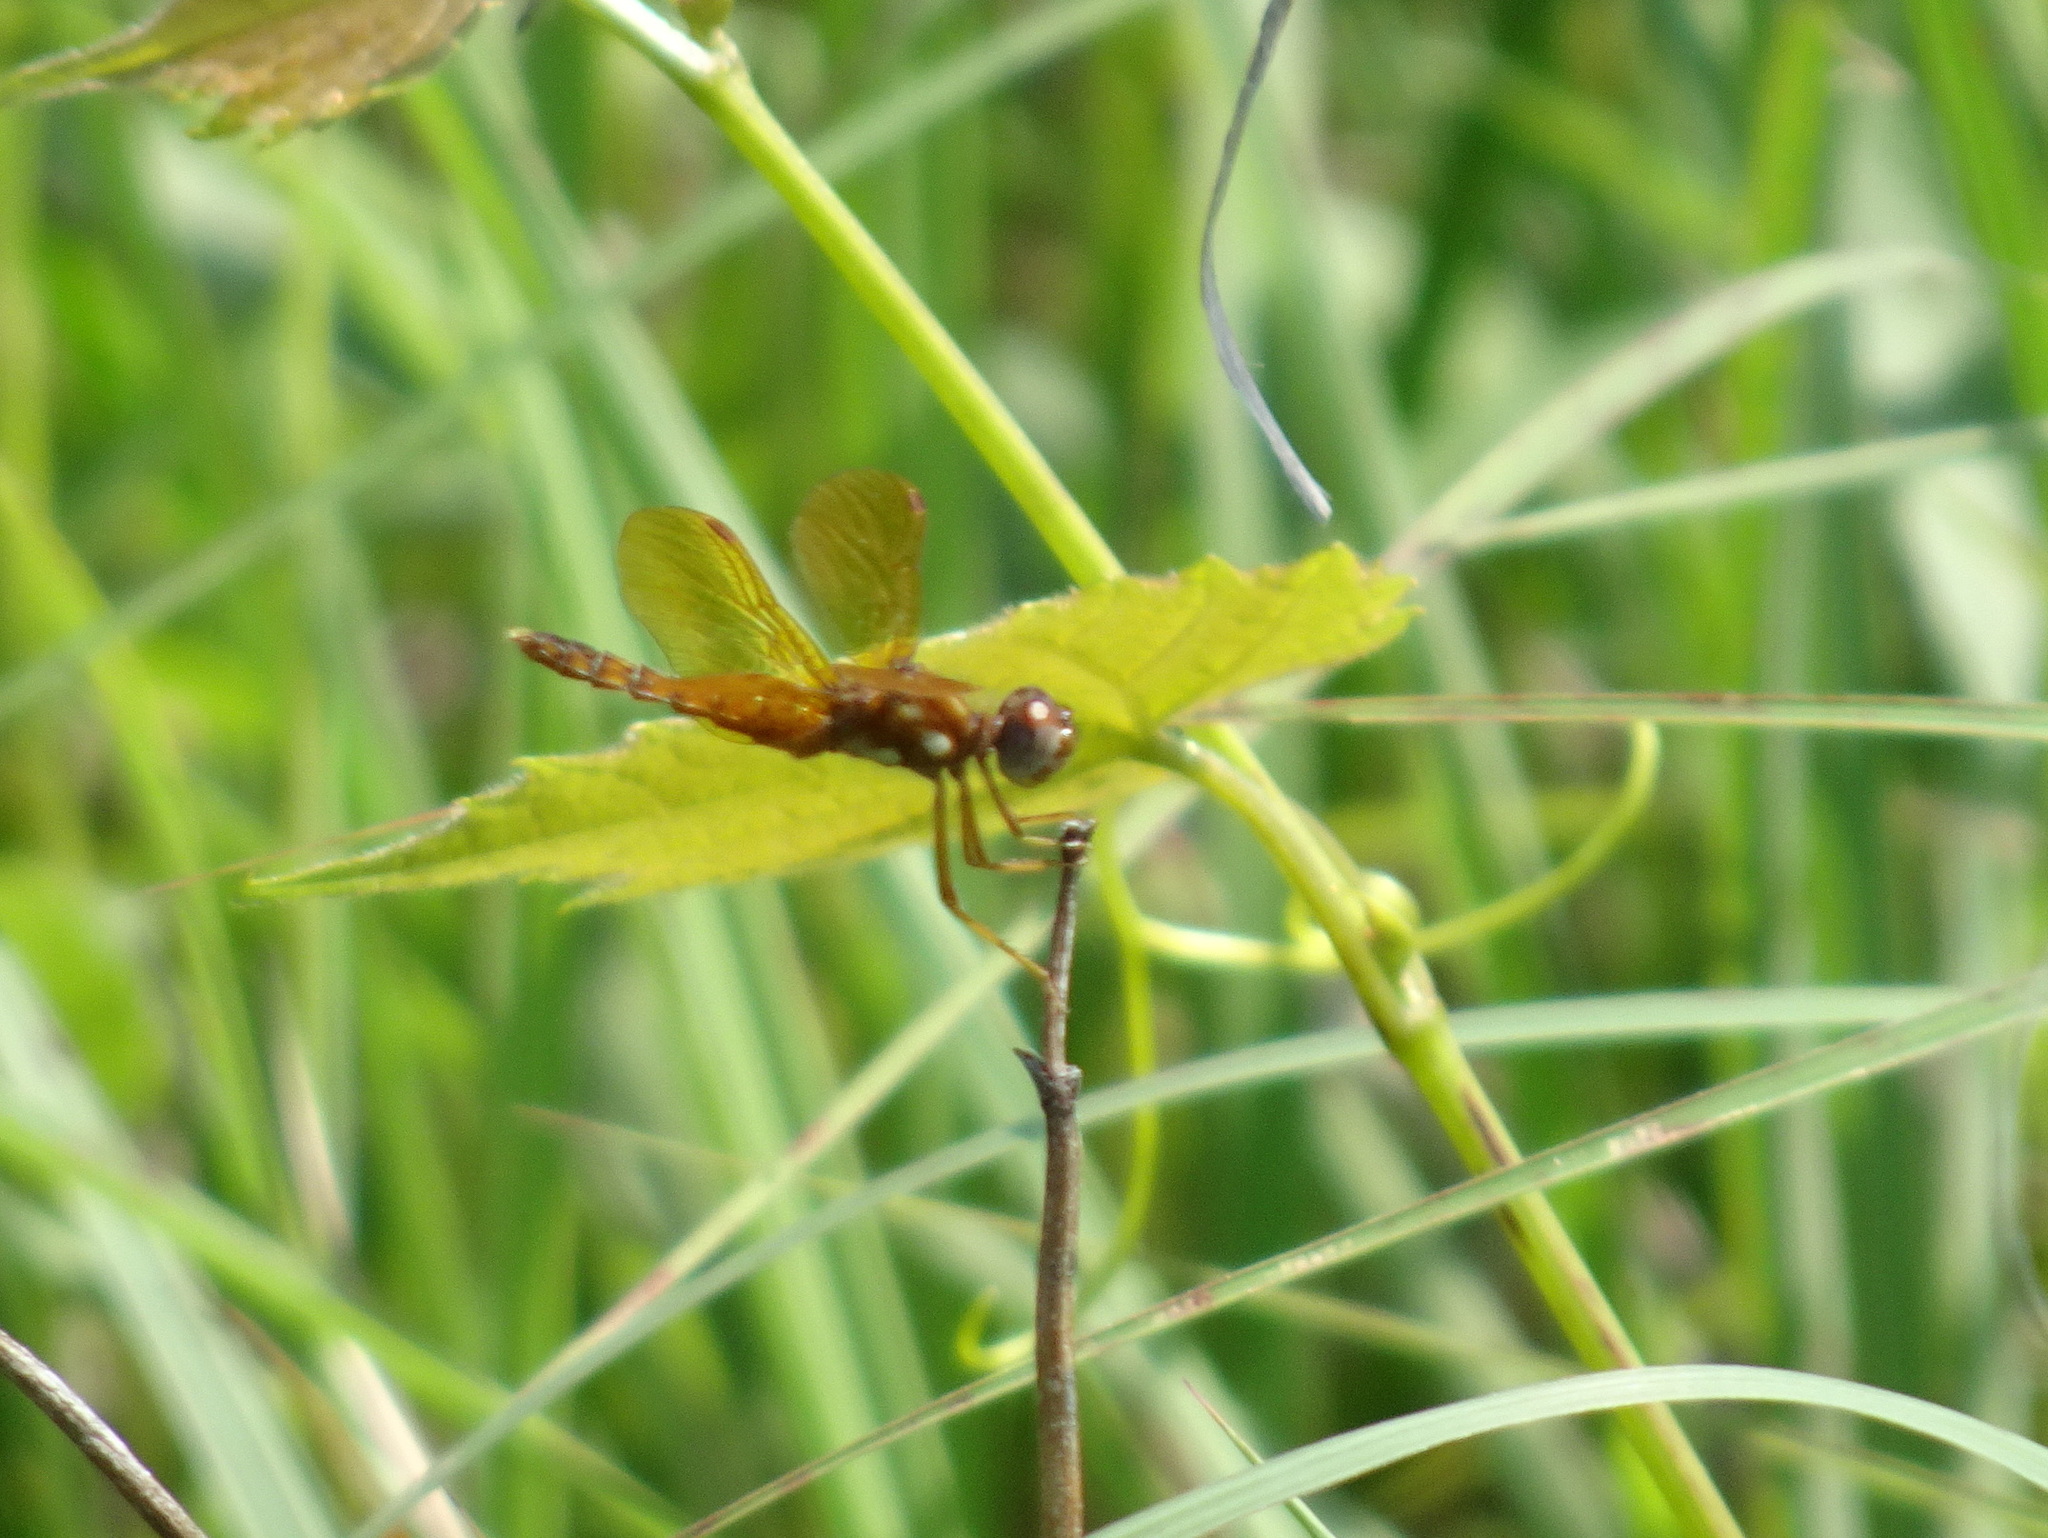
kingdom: Animalia
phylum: Arthropoda
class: Insecta
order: Odonata
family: Libellulidae
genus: Perithemis
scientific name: Perithemis tenera
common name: Eastern amberwing
